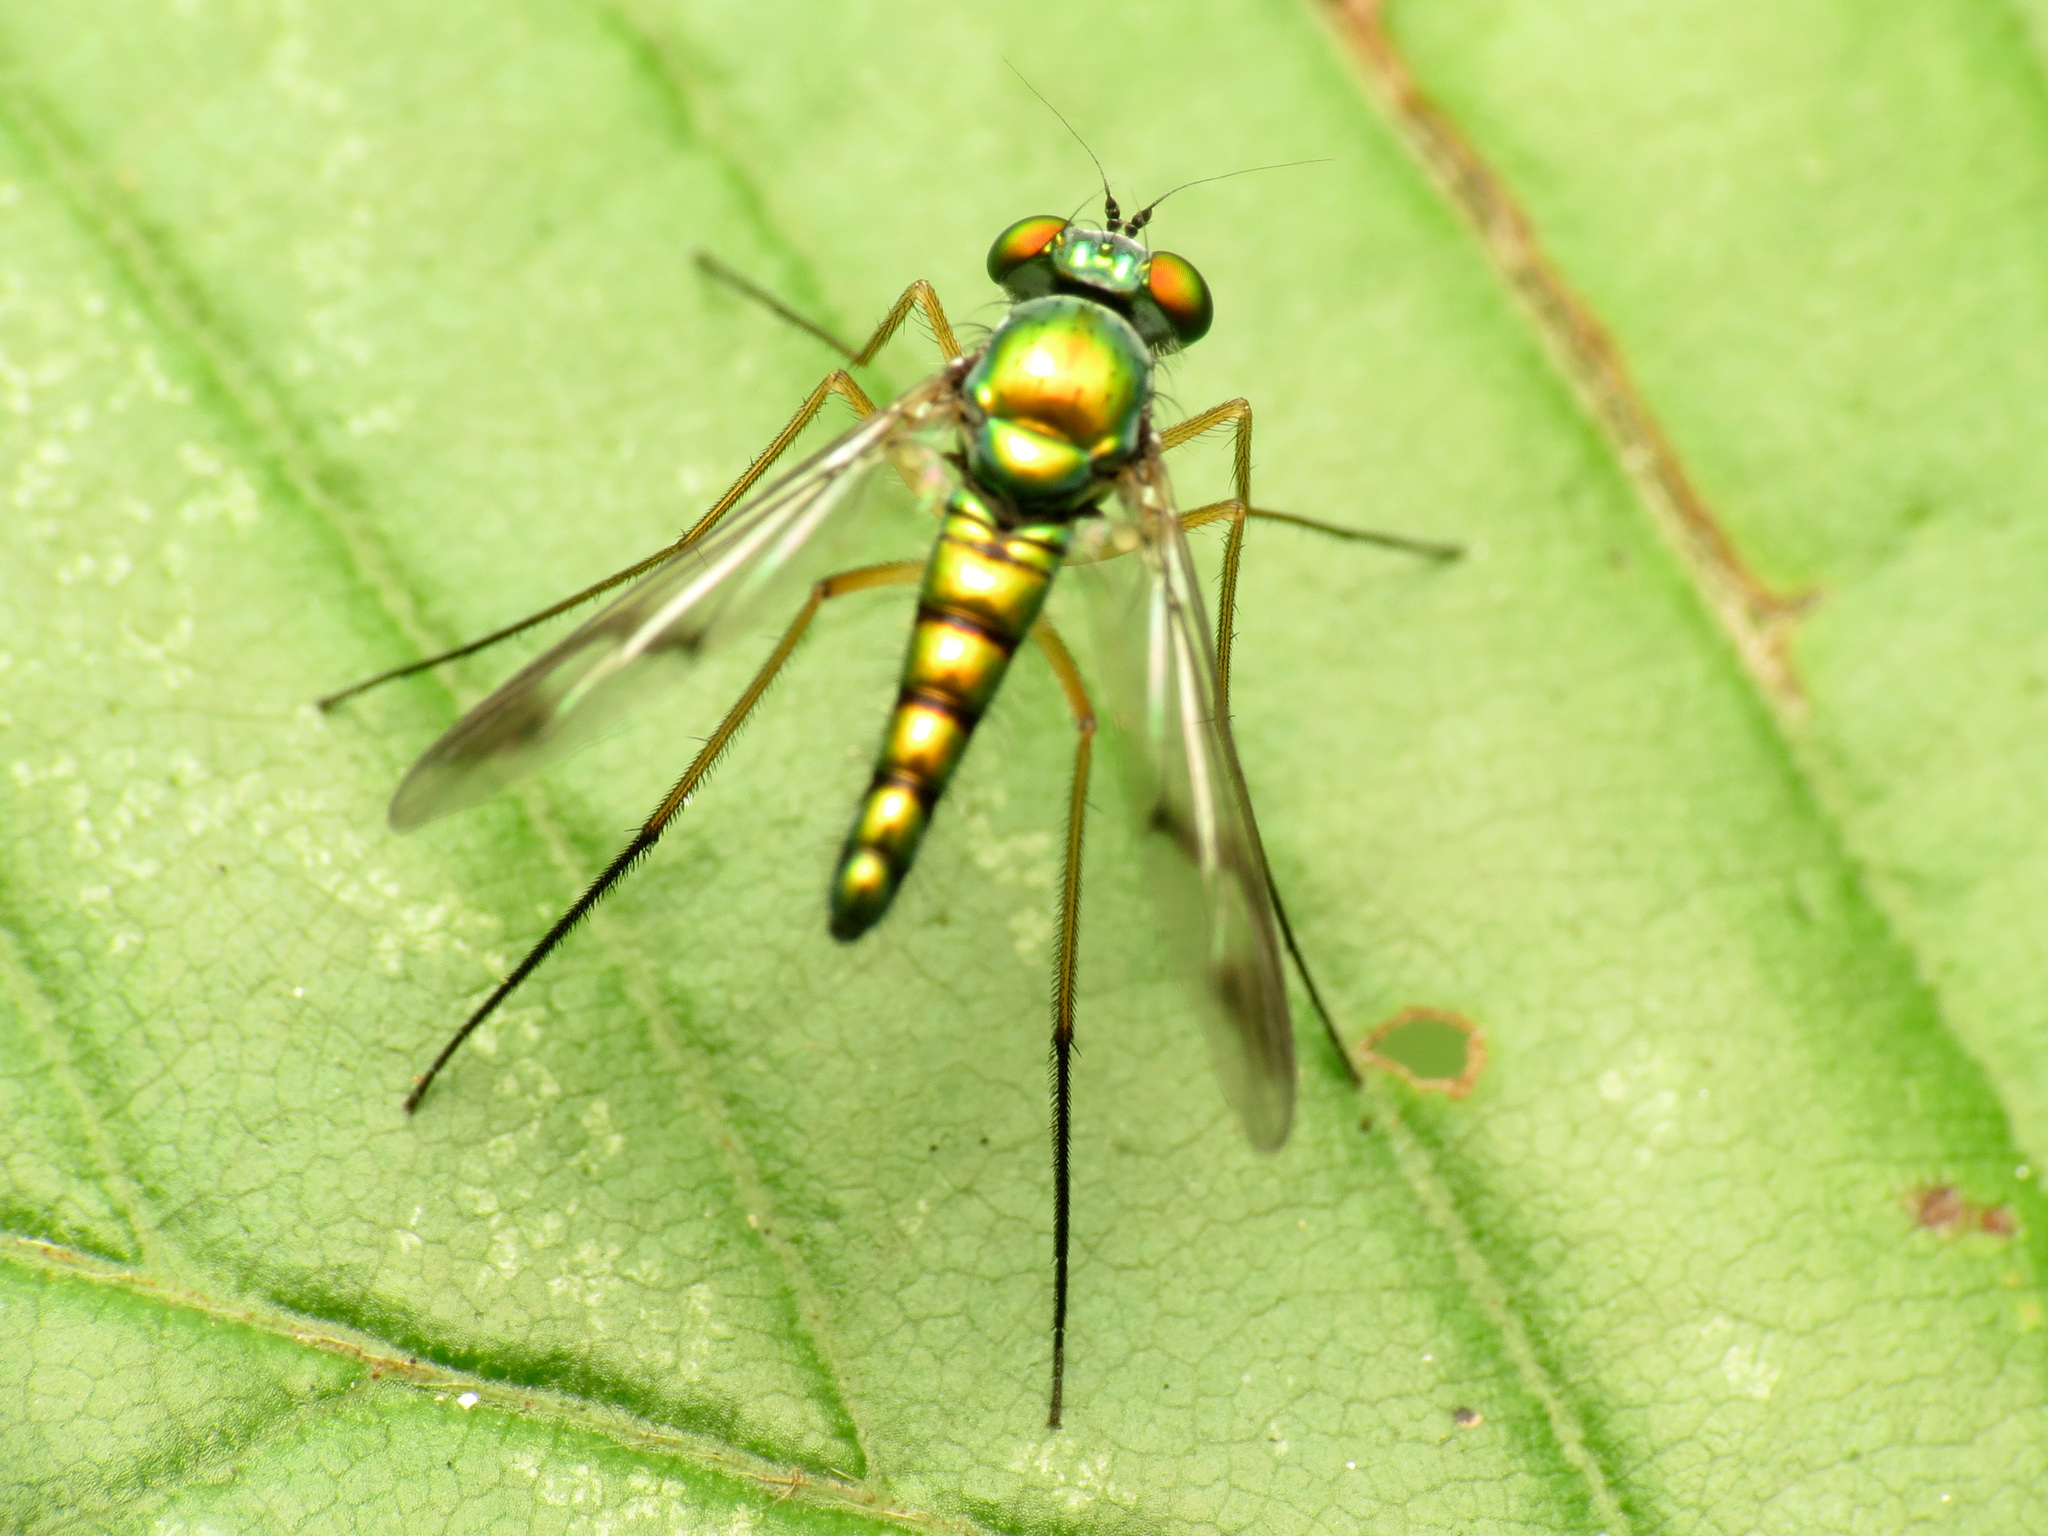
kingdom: Animalia
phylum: Arthropoda
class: Insecta
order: Diptera
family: Dolichopodidae
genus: Condylostylus
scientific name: Condylostylus sipho
